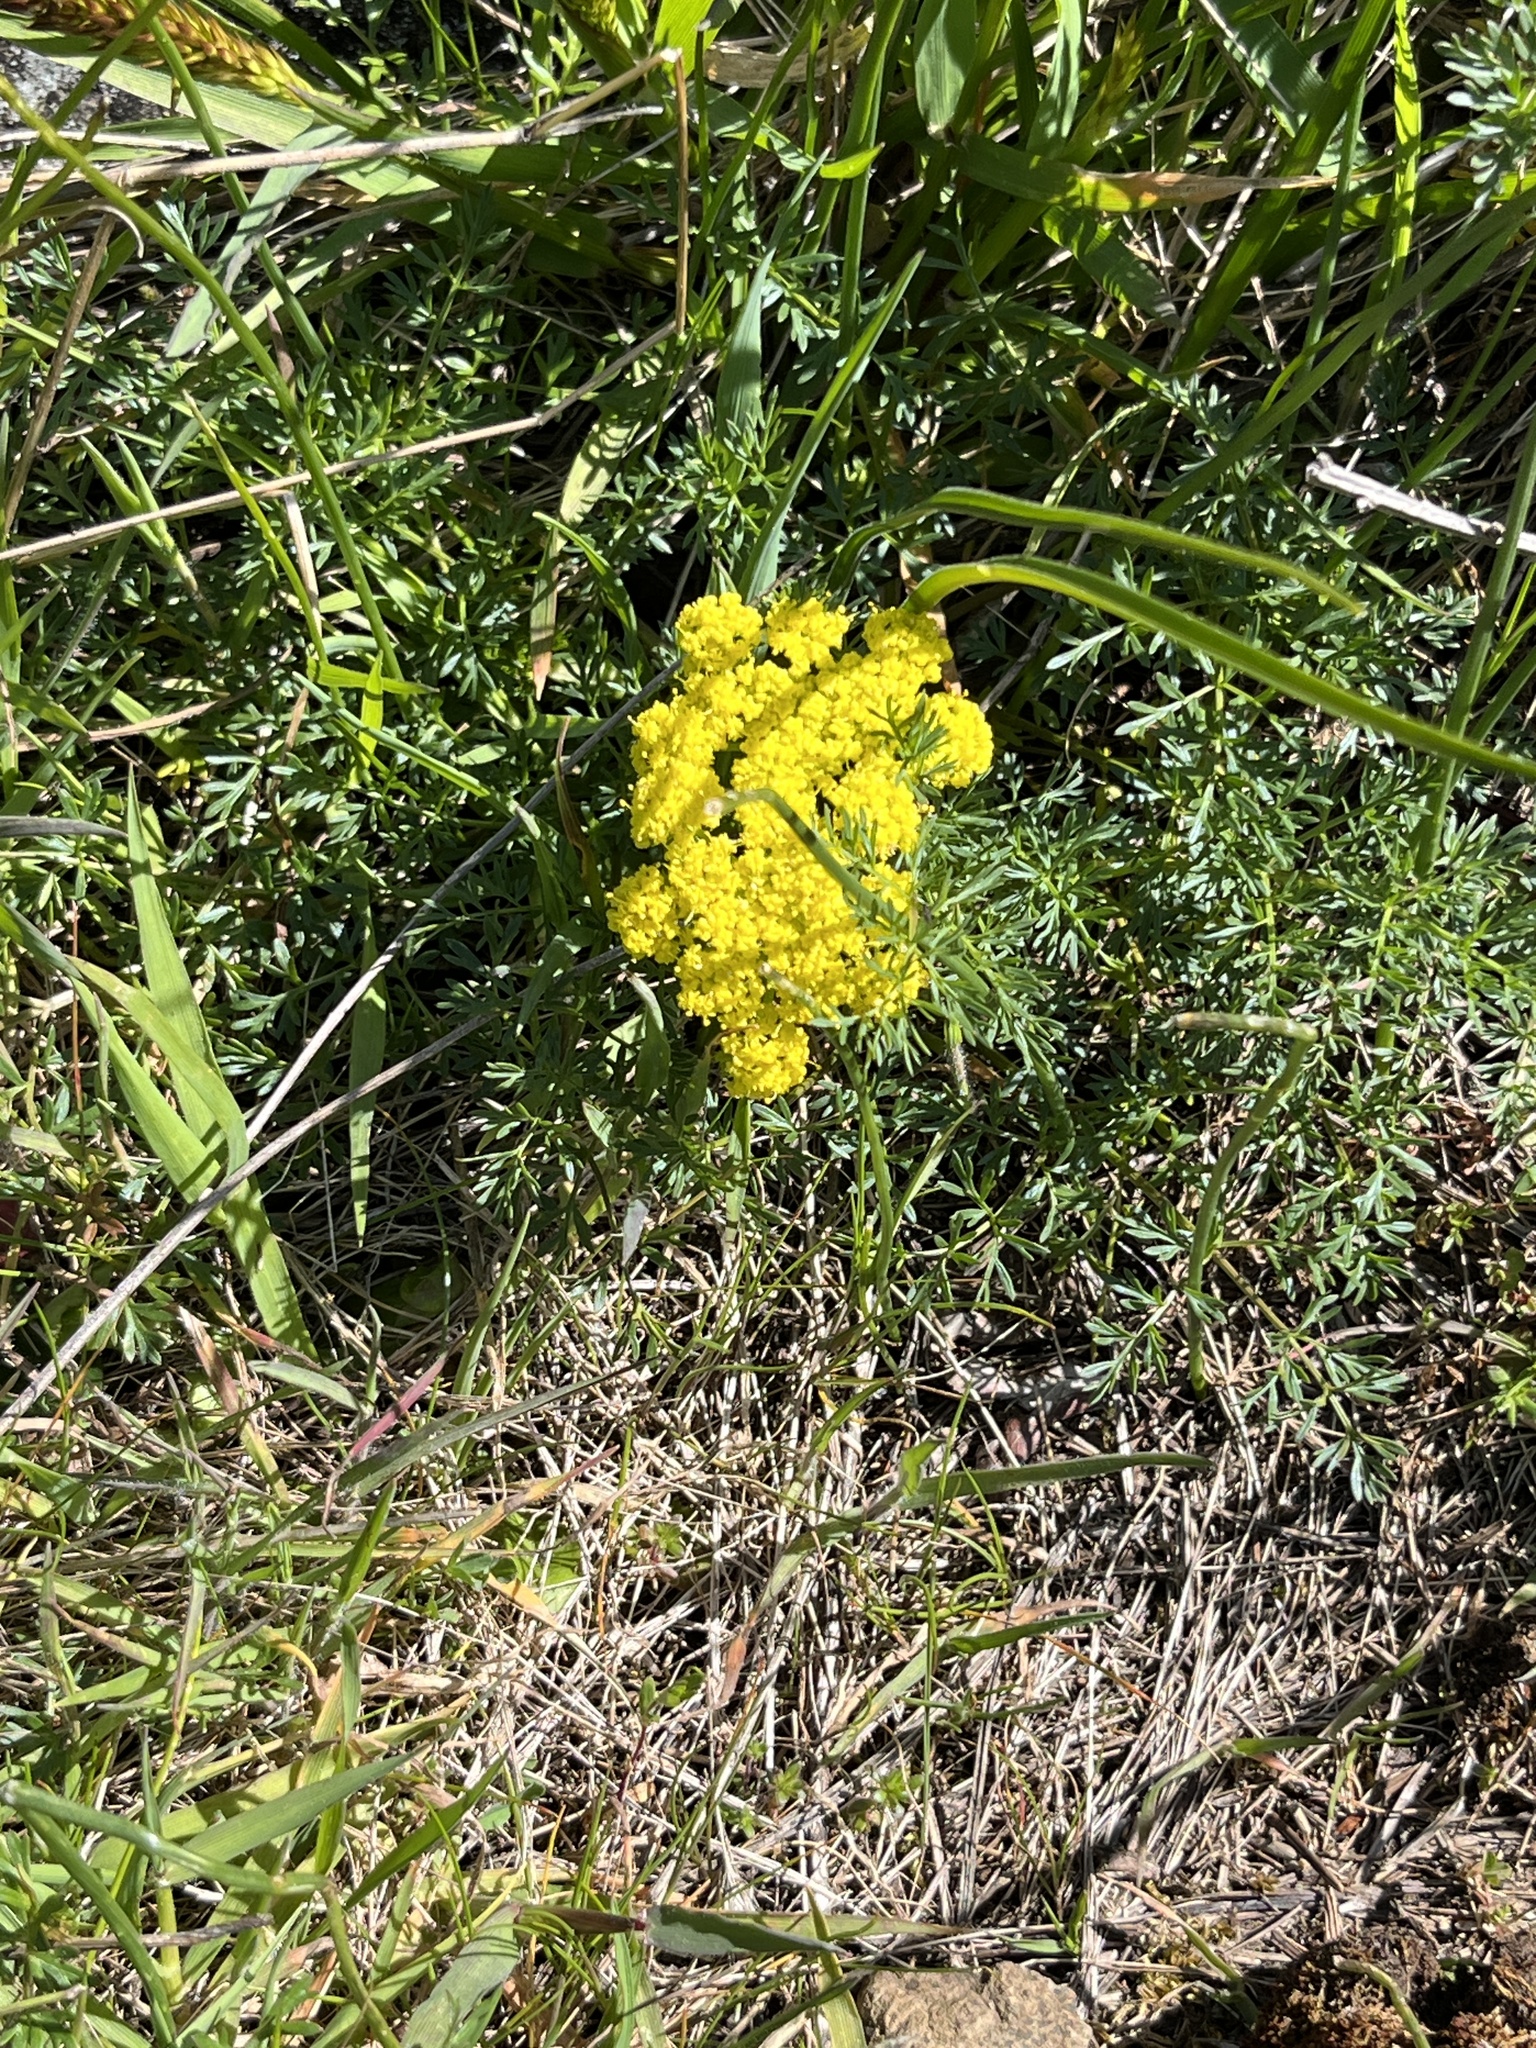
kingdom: Plantae
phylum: Tracheophyta
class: Magnoliopsida
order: Apiales
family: Apiaceae
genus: Lomatium
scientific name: Lomatium utriculatum
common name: Fine-leaf desert-parsley
